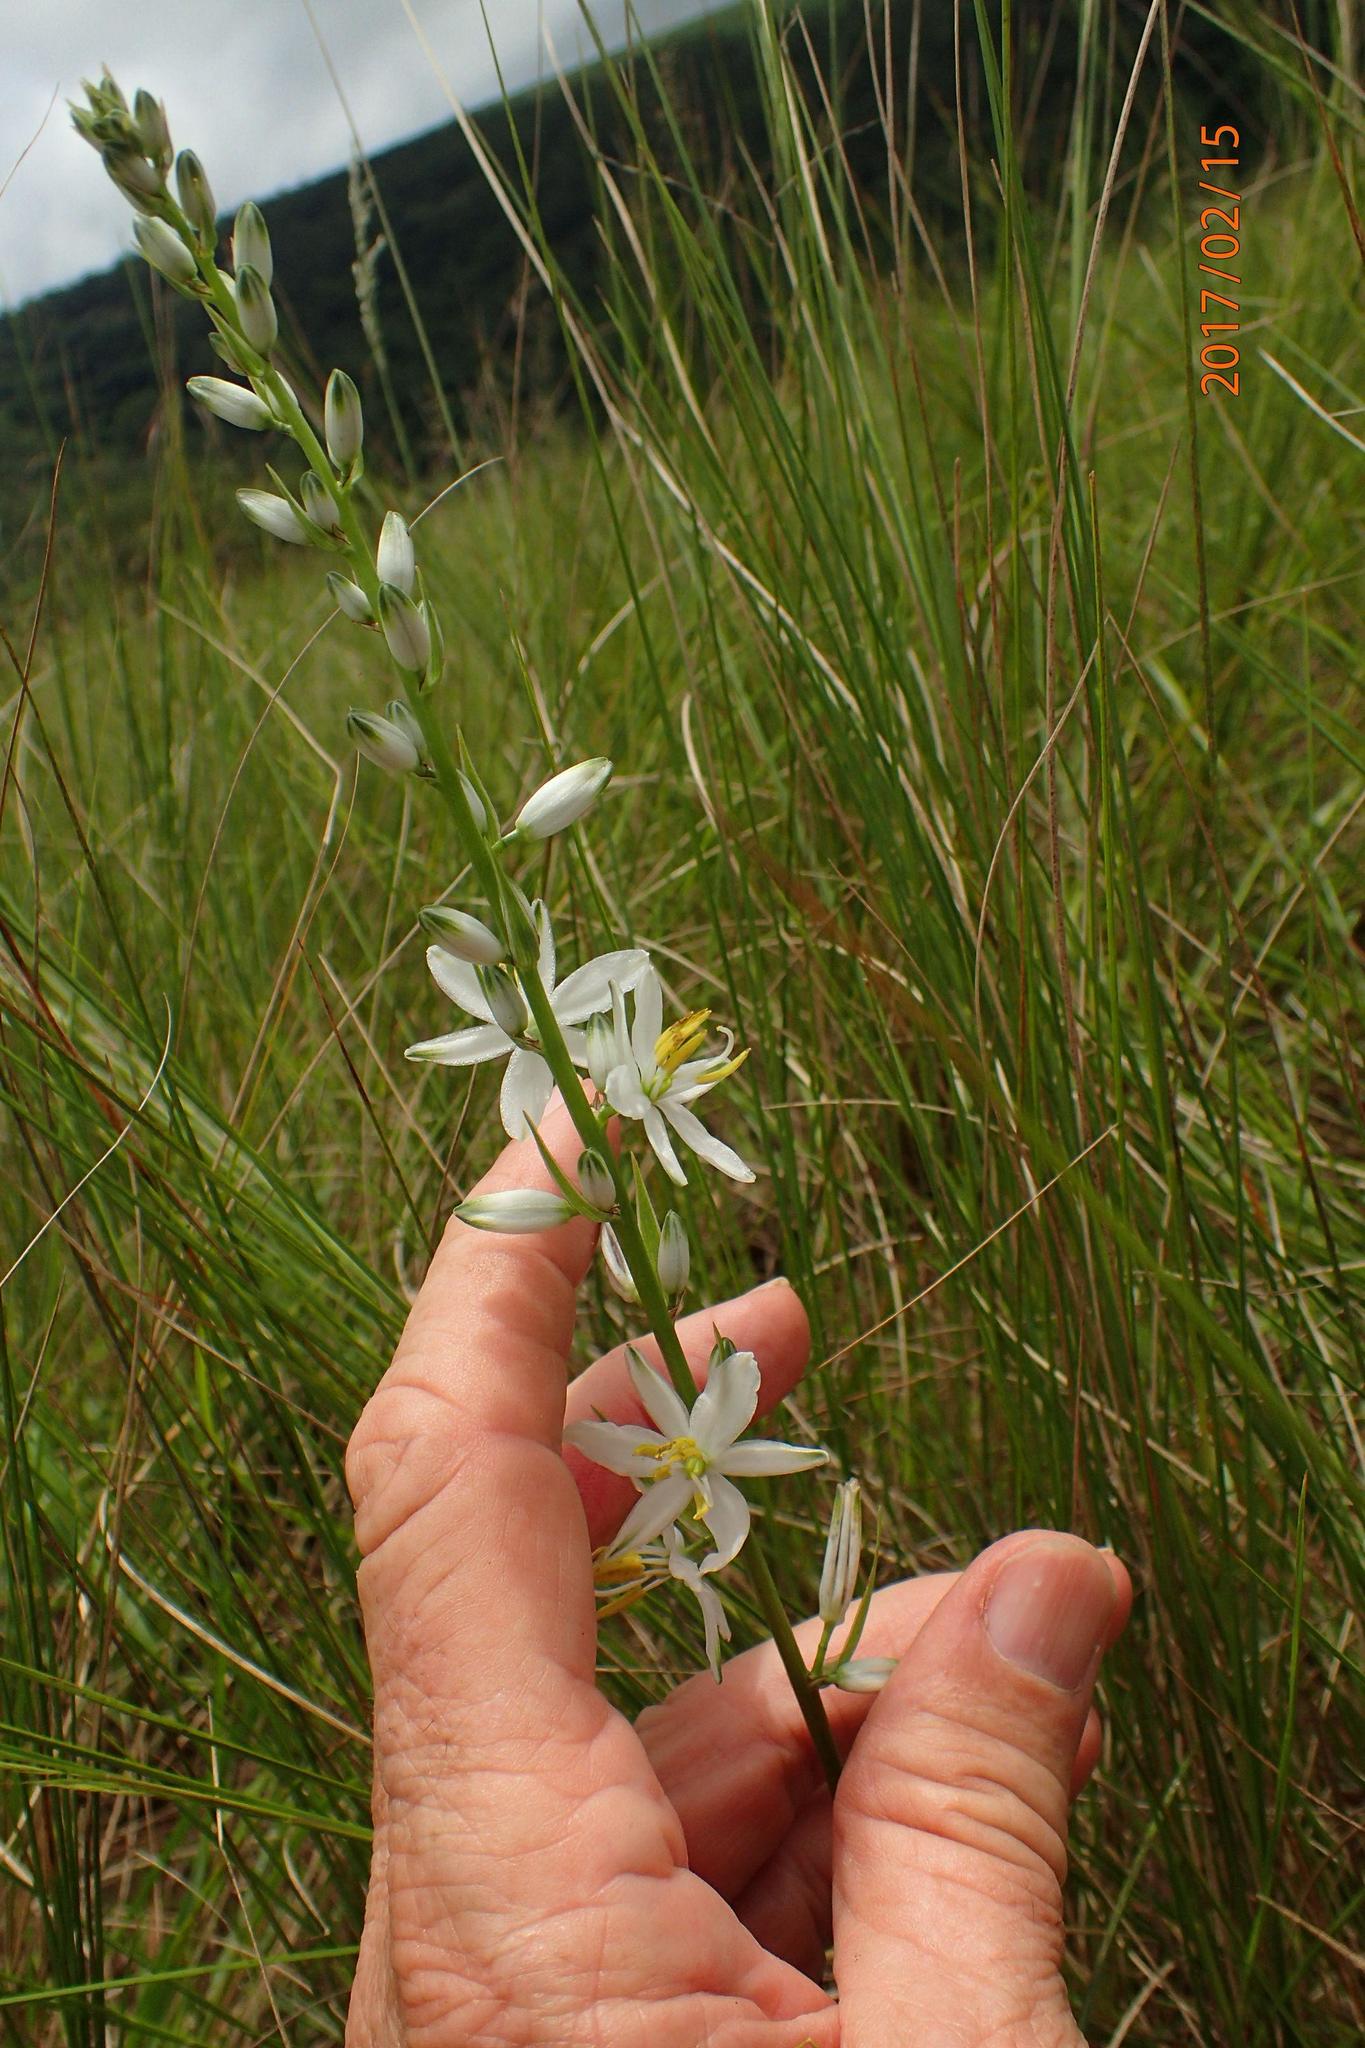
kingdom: Plantae
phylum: Tracheophyta
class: Liliopsida
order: Asparagales
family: Asparagaceae
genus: Chlorophytum
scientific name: Chlorophytum bowkeri
